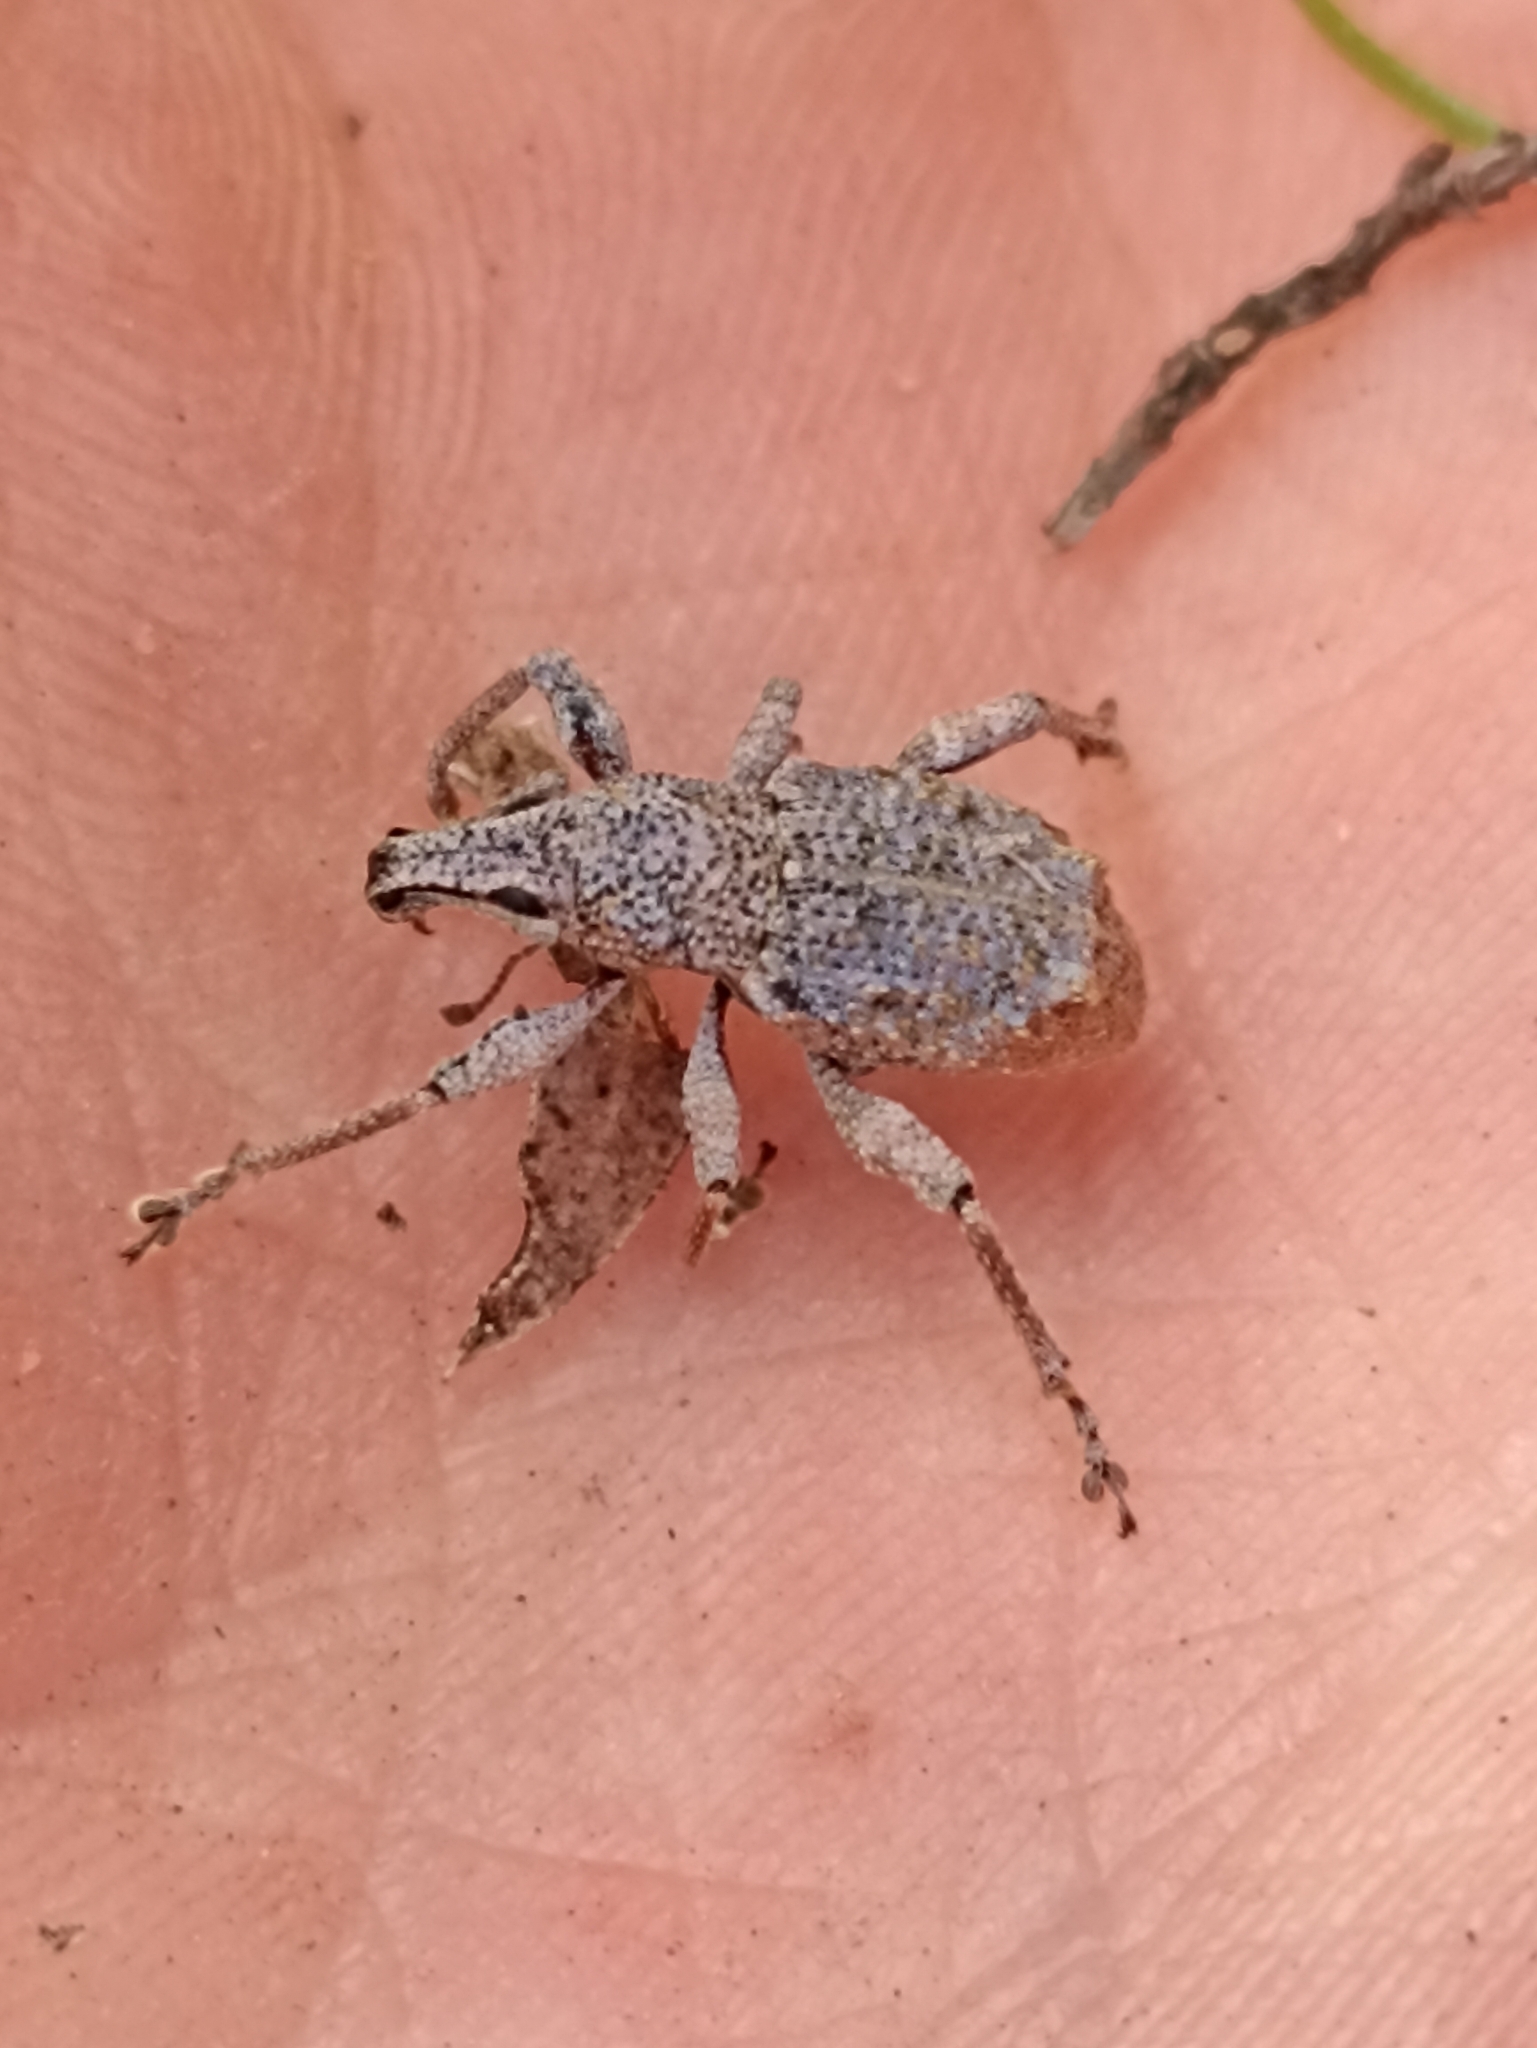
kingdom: Animalia
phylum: Arthropoda
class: Insecta
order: Coleoptera
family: Curculionidae
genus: Catoptes
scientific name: Catoptes binodis
